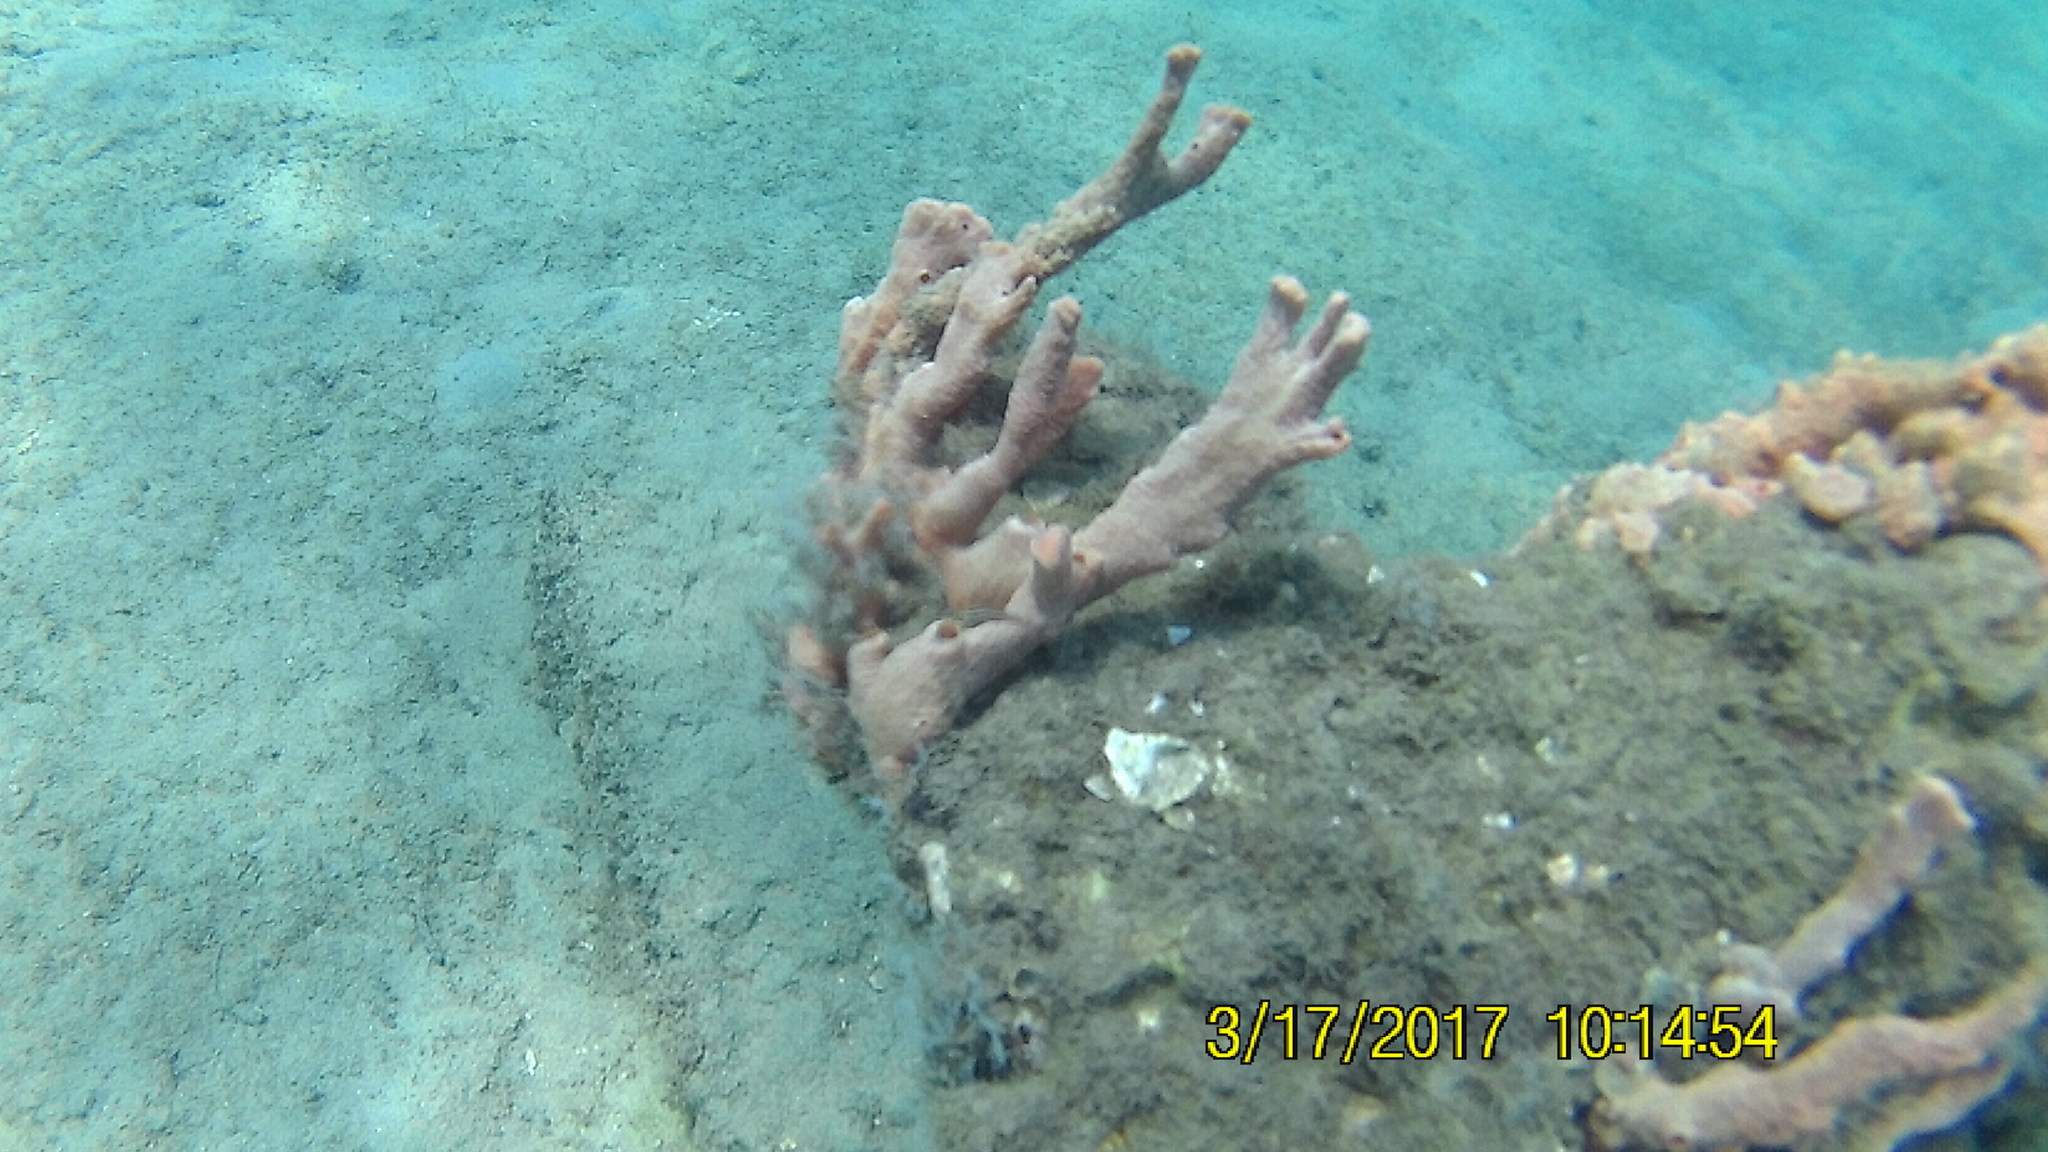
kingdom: Animalia
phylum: Porifera
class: Demospongiae
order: Poecilosclerida
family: Desmacididae
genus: Desmapsamma
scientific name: Desmapsamma anchorata
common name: Lumpy overgrowing sponge
